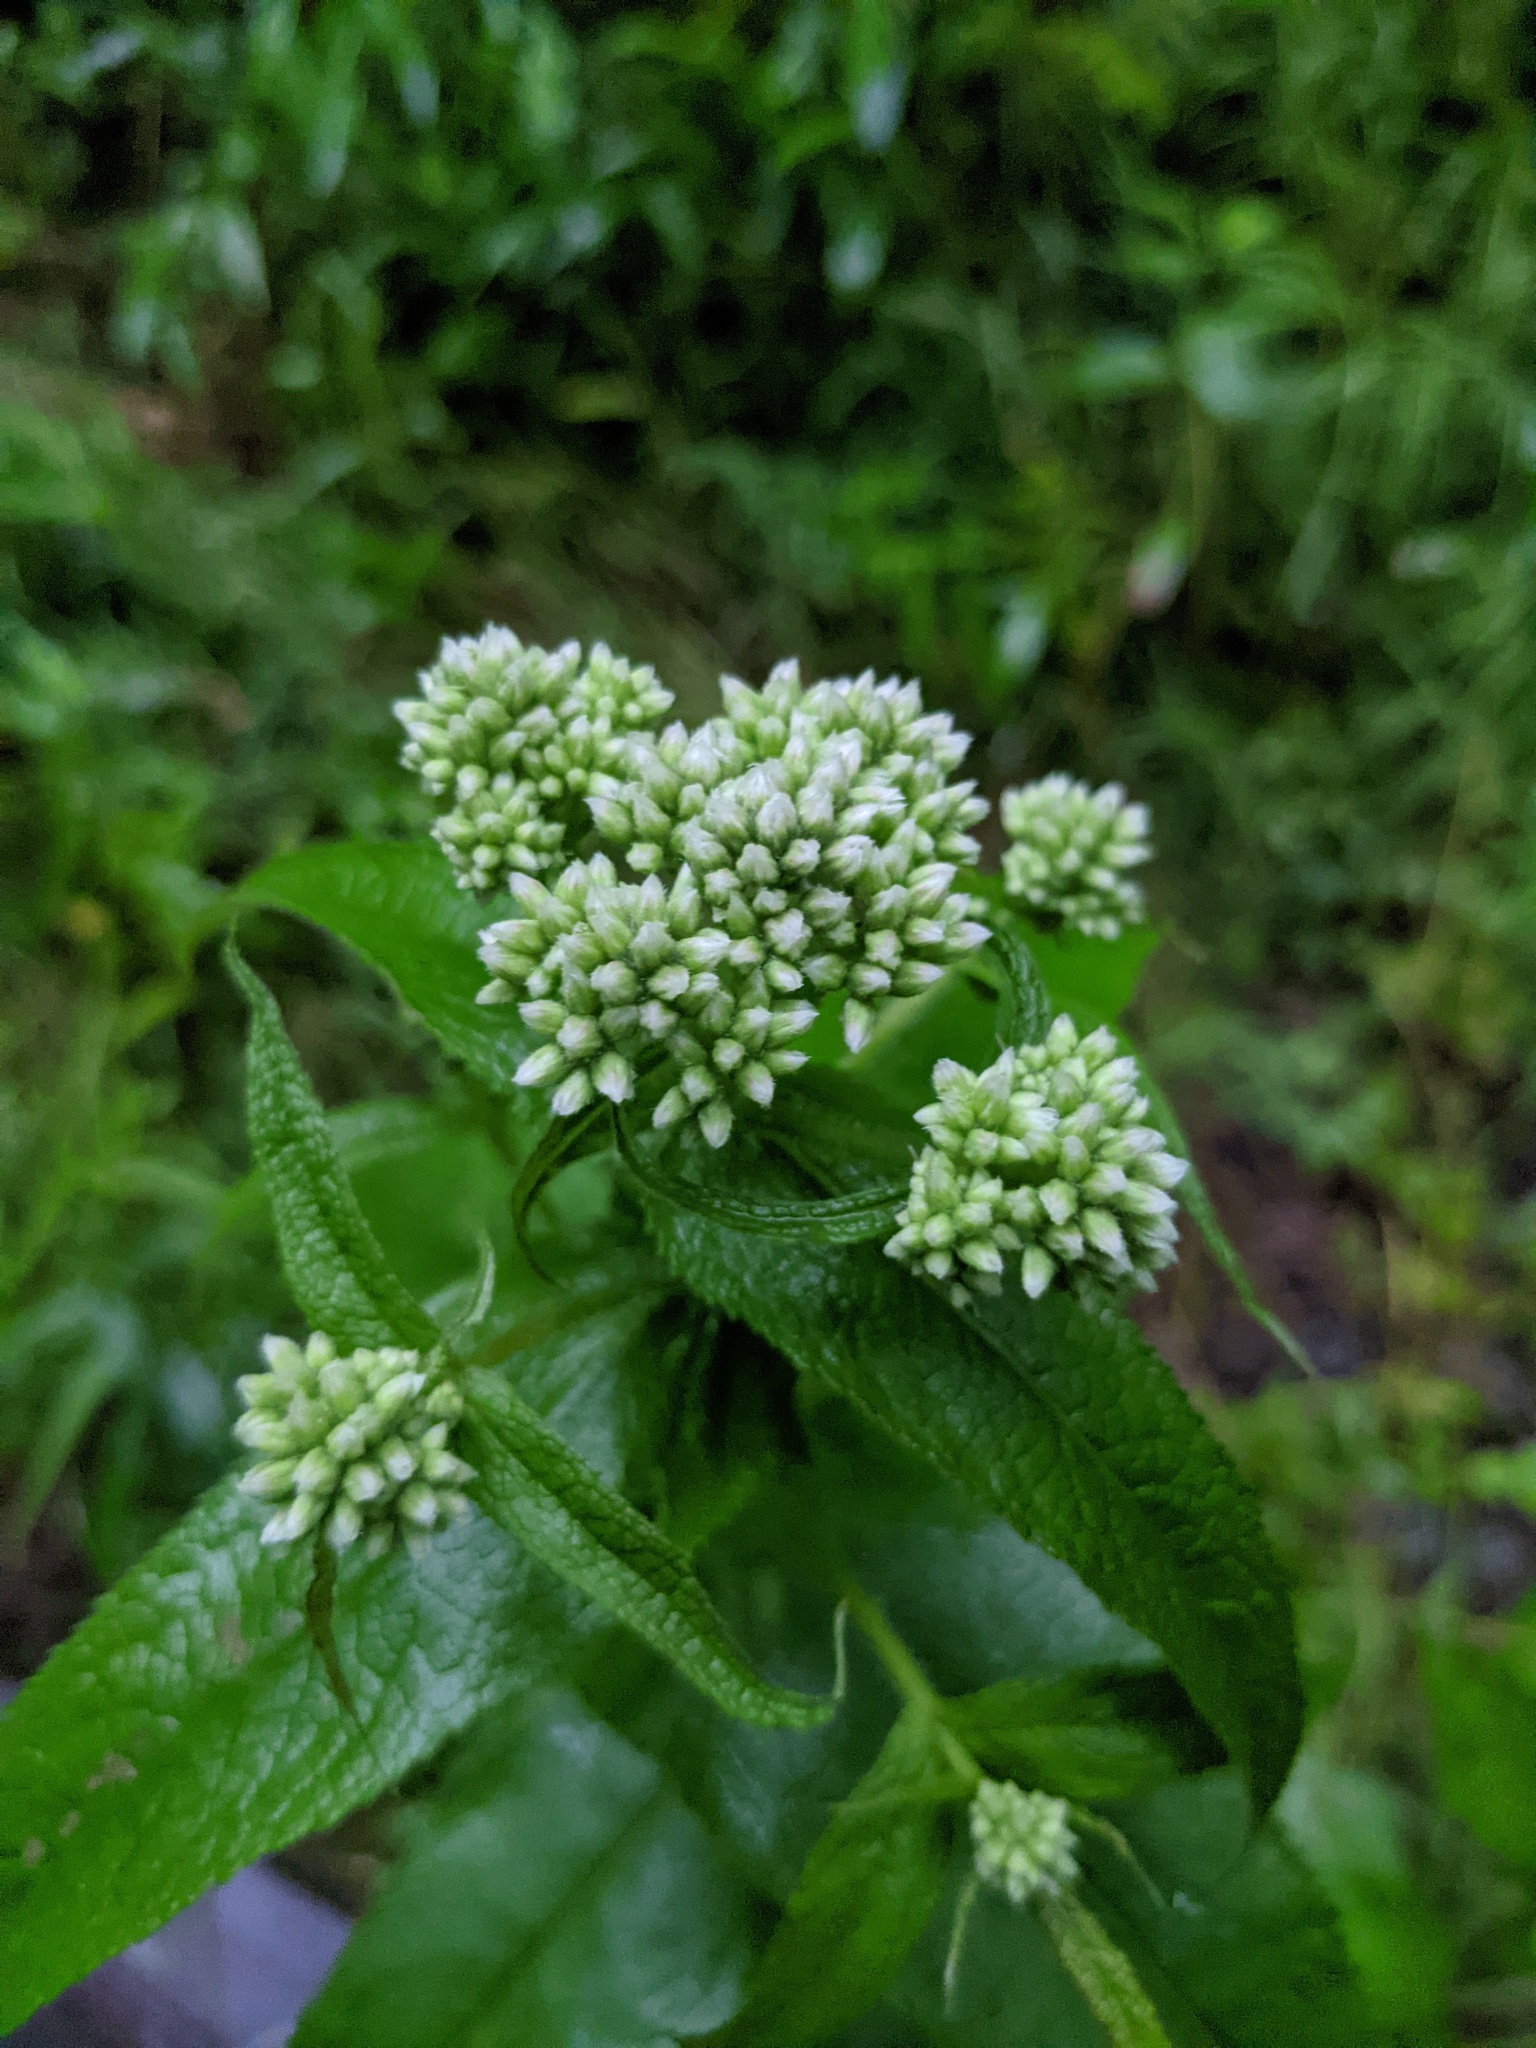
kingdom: Plantae
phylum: Tracheophyta
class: Magnoliopsida
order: Asterales
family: Asteraceae
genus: Eupatorium
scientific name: Eupatorium perfoliatum
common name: Boneset
